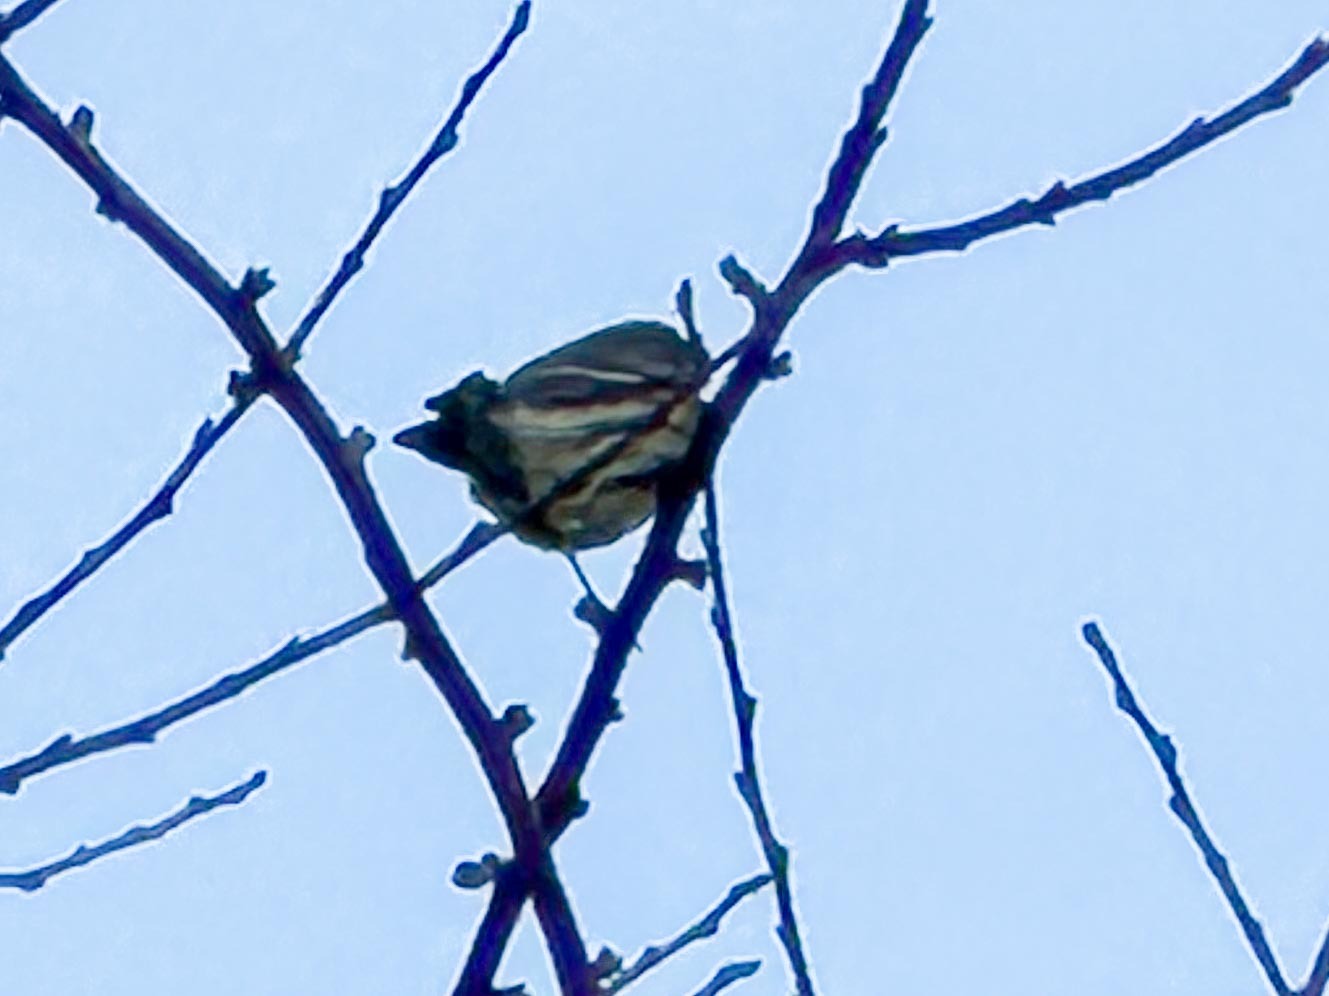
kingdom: Animalia
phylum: Chordata
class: Aves
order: Passeriformes
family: Parulidae
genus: Setophaga
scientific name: Setophaga coronata
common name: Myrtle warbler
